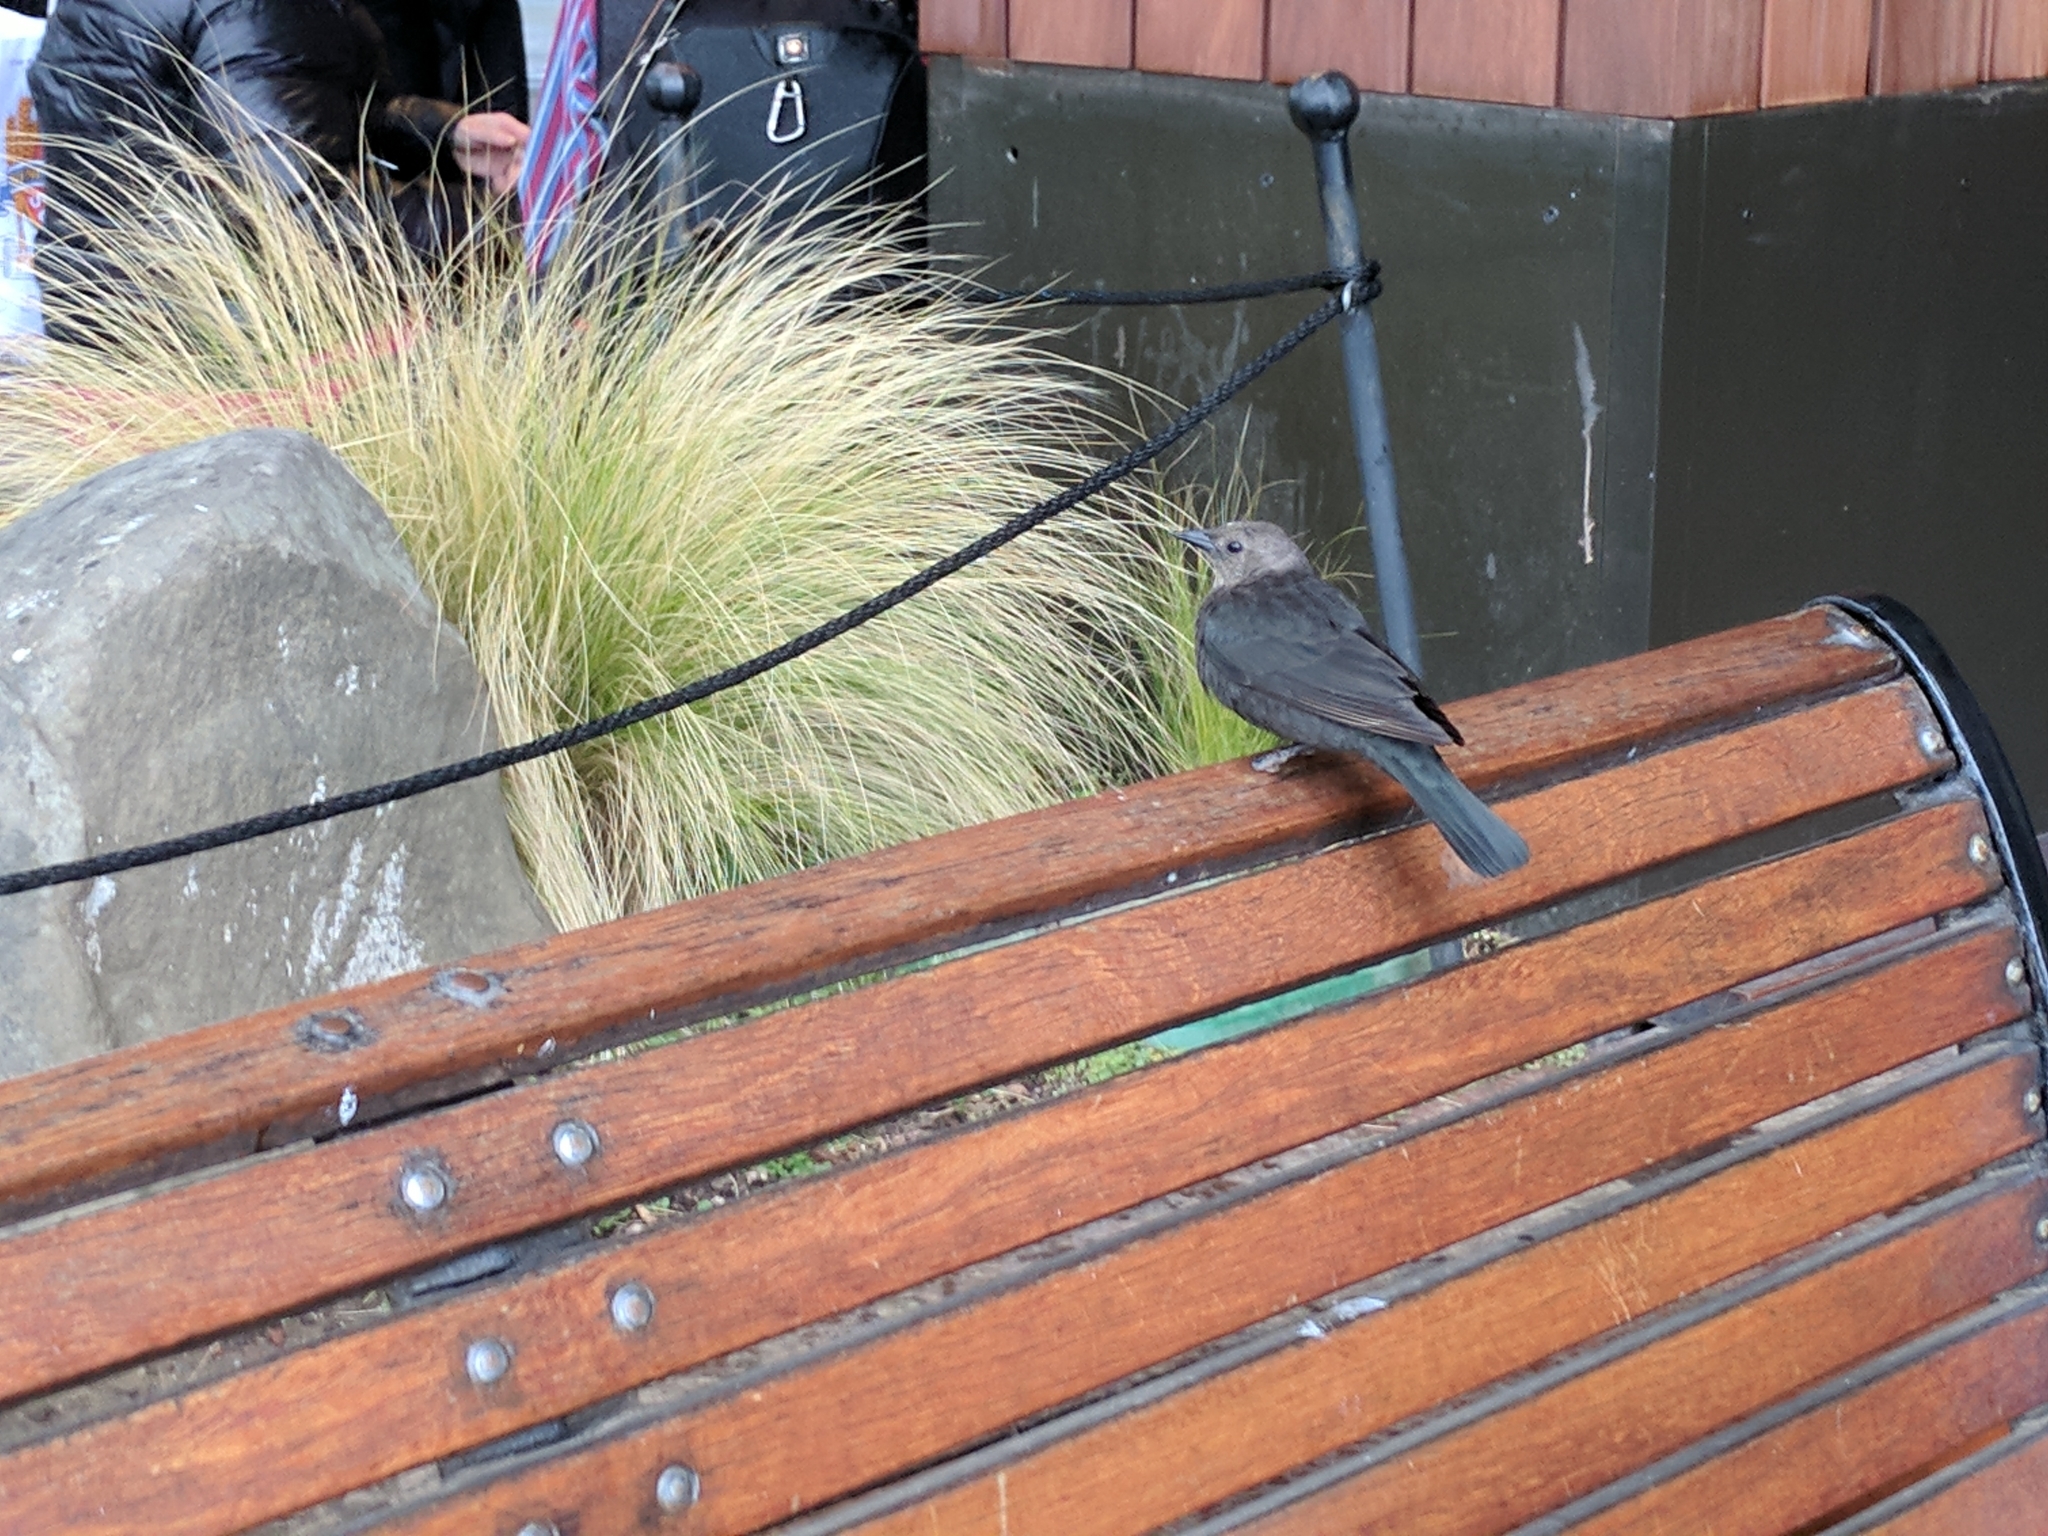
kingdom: Animalia
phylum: Chordata
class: Aves
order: Passeriformes
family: Icteridae
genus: Euphagus
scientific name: Euphagus cyanocephalus
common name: Brewer's blackbird
